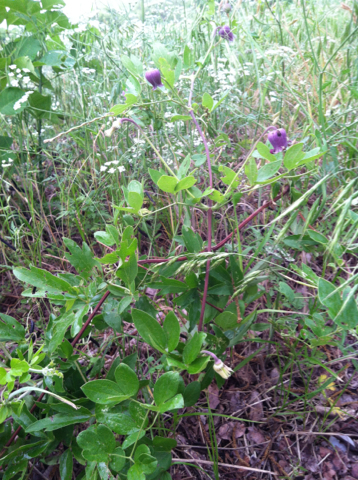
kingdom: Plantae
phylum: Tracheophyta
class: Magnoliopsida
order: Ranunculales
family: Ranunculaceae
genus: Clematis
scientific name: Clematis pitcheri
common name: Bellflower clematis
